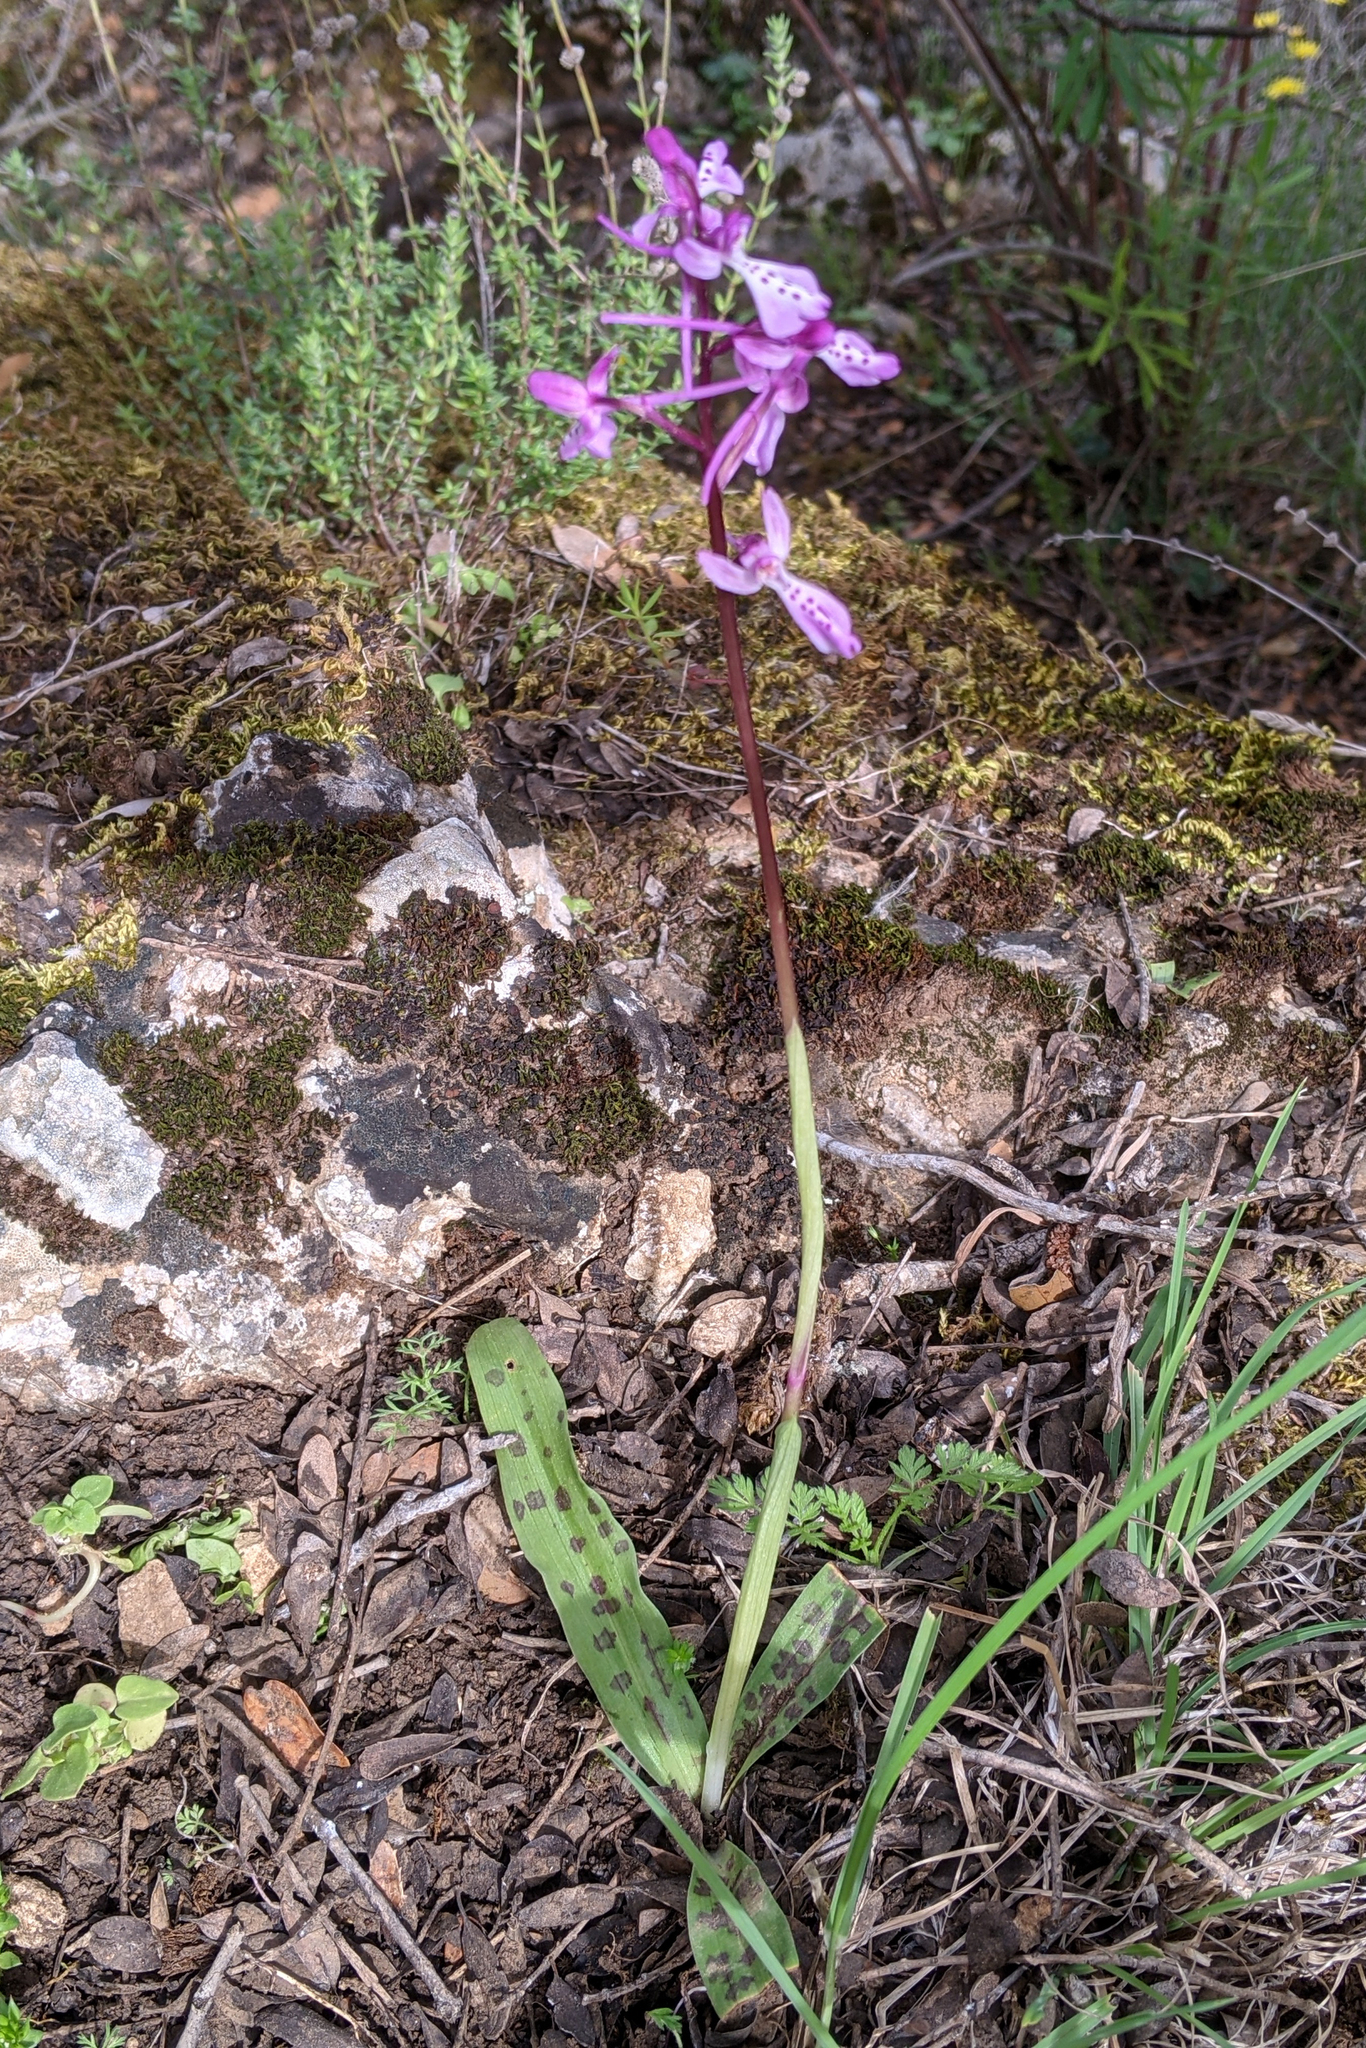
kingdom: Plantae
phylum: Tracheophyta
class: Liliopsida
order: Asparagales
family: Orchidaceae
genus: Orchis
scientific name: Orchis anatolica
